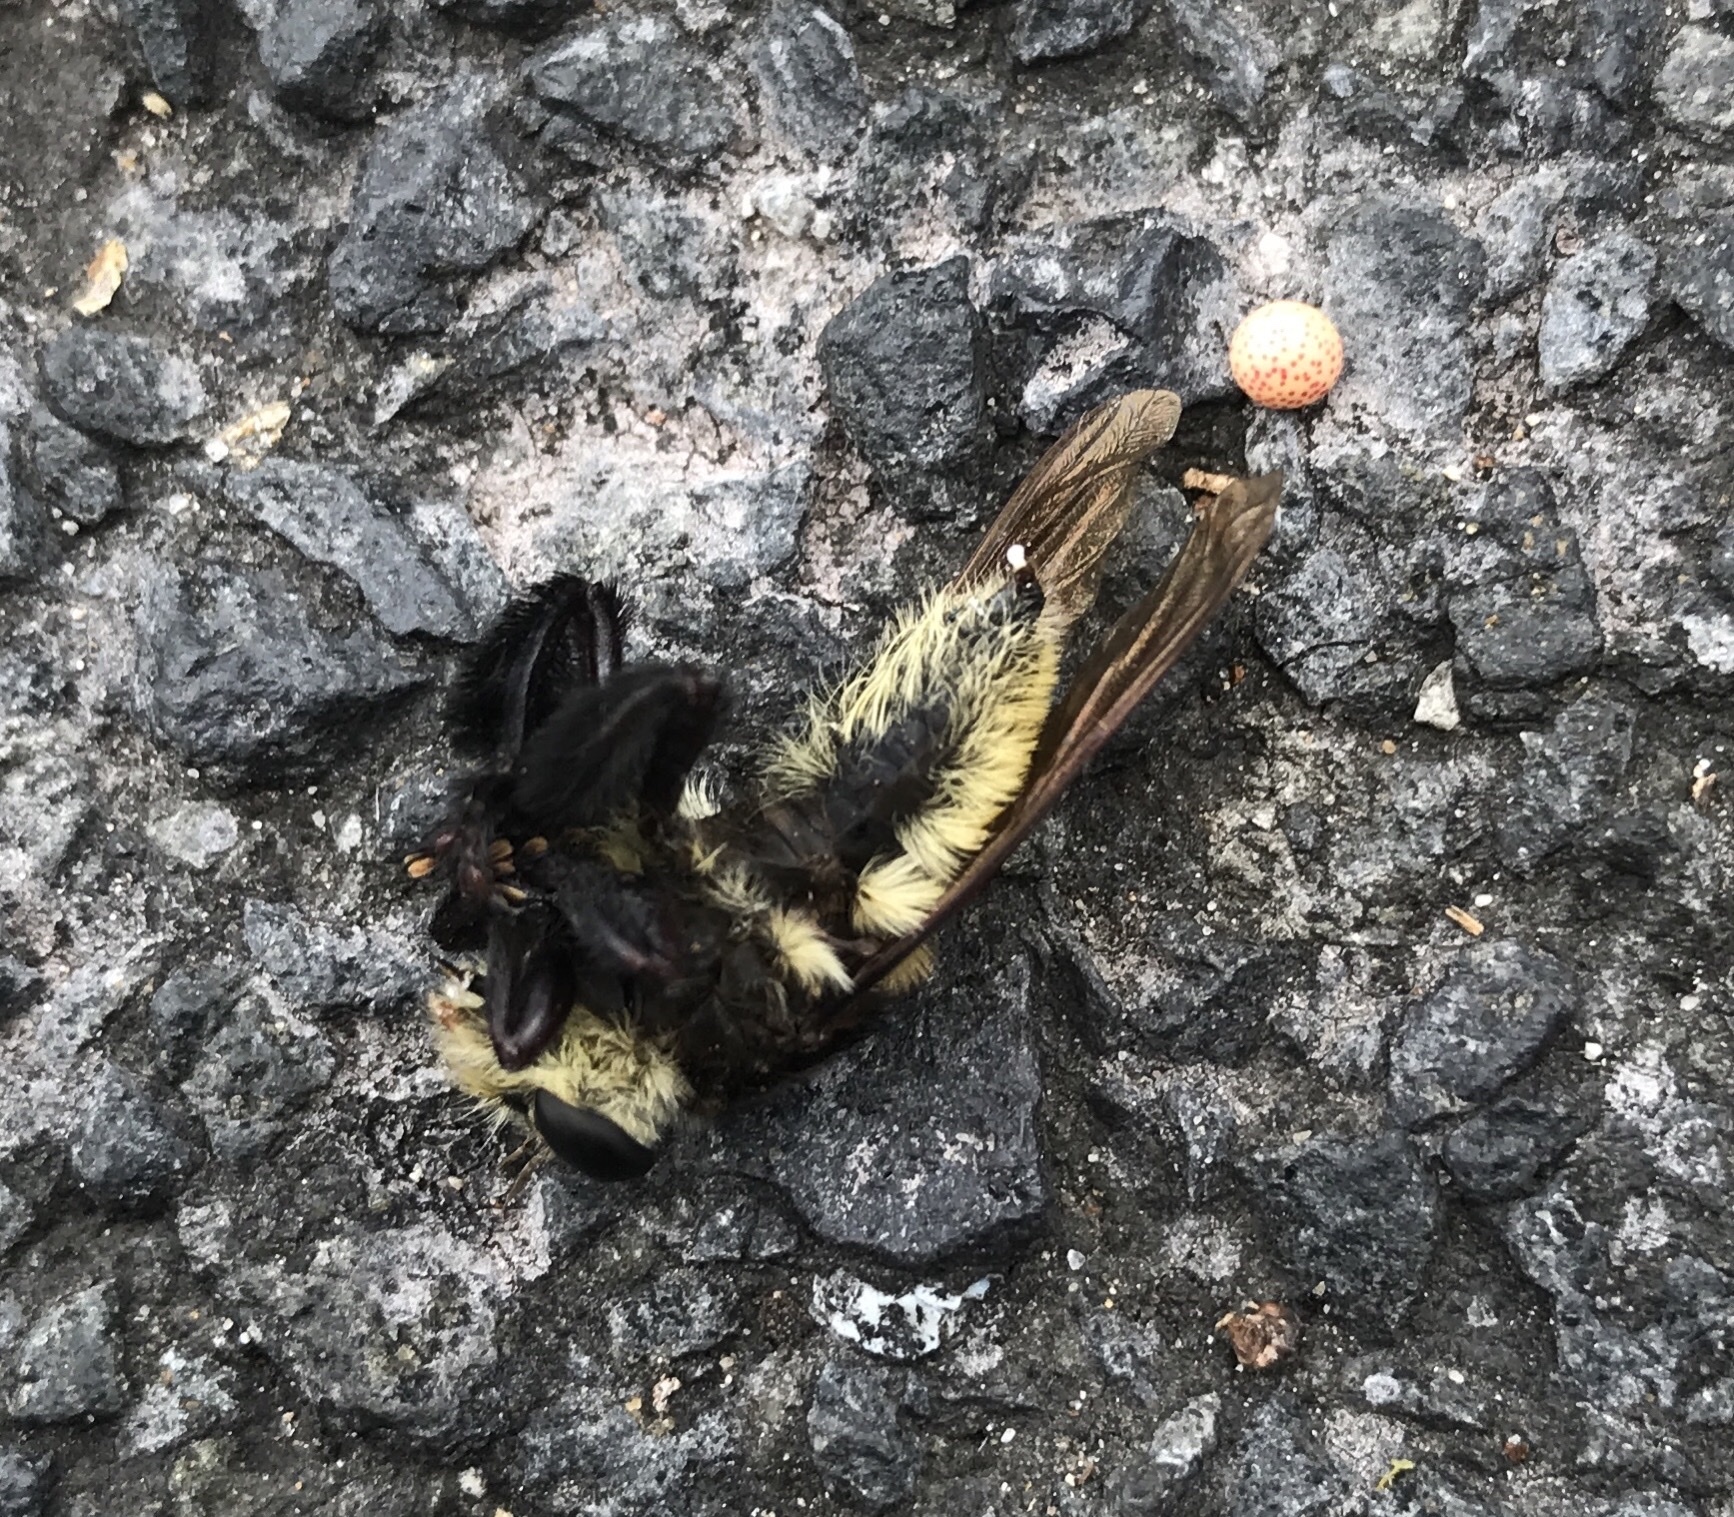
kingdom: Animalia
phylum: Arthropoda
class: Insecta
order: Diptera
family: Asilidae
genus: Mallophora
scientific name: Mallophora fautrix
